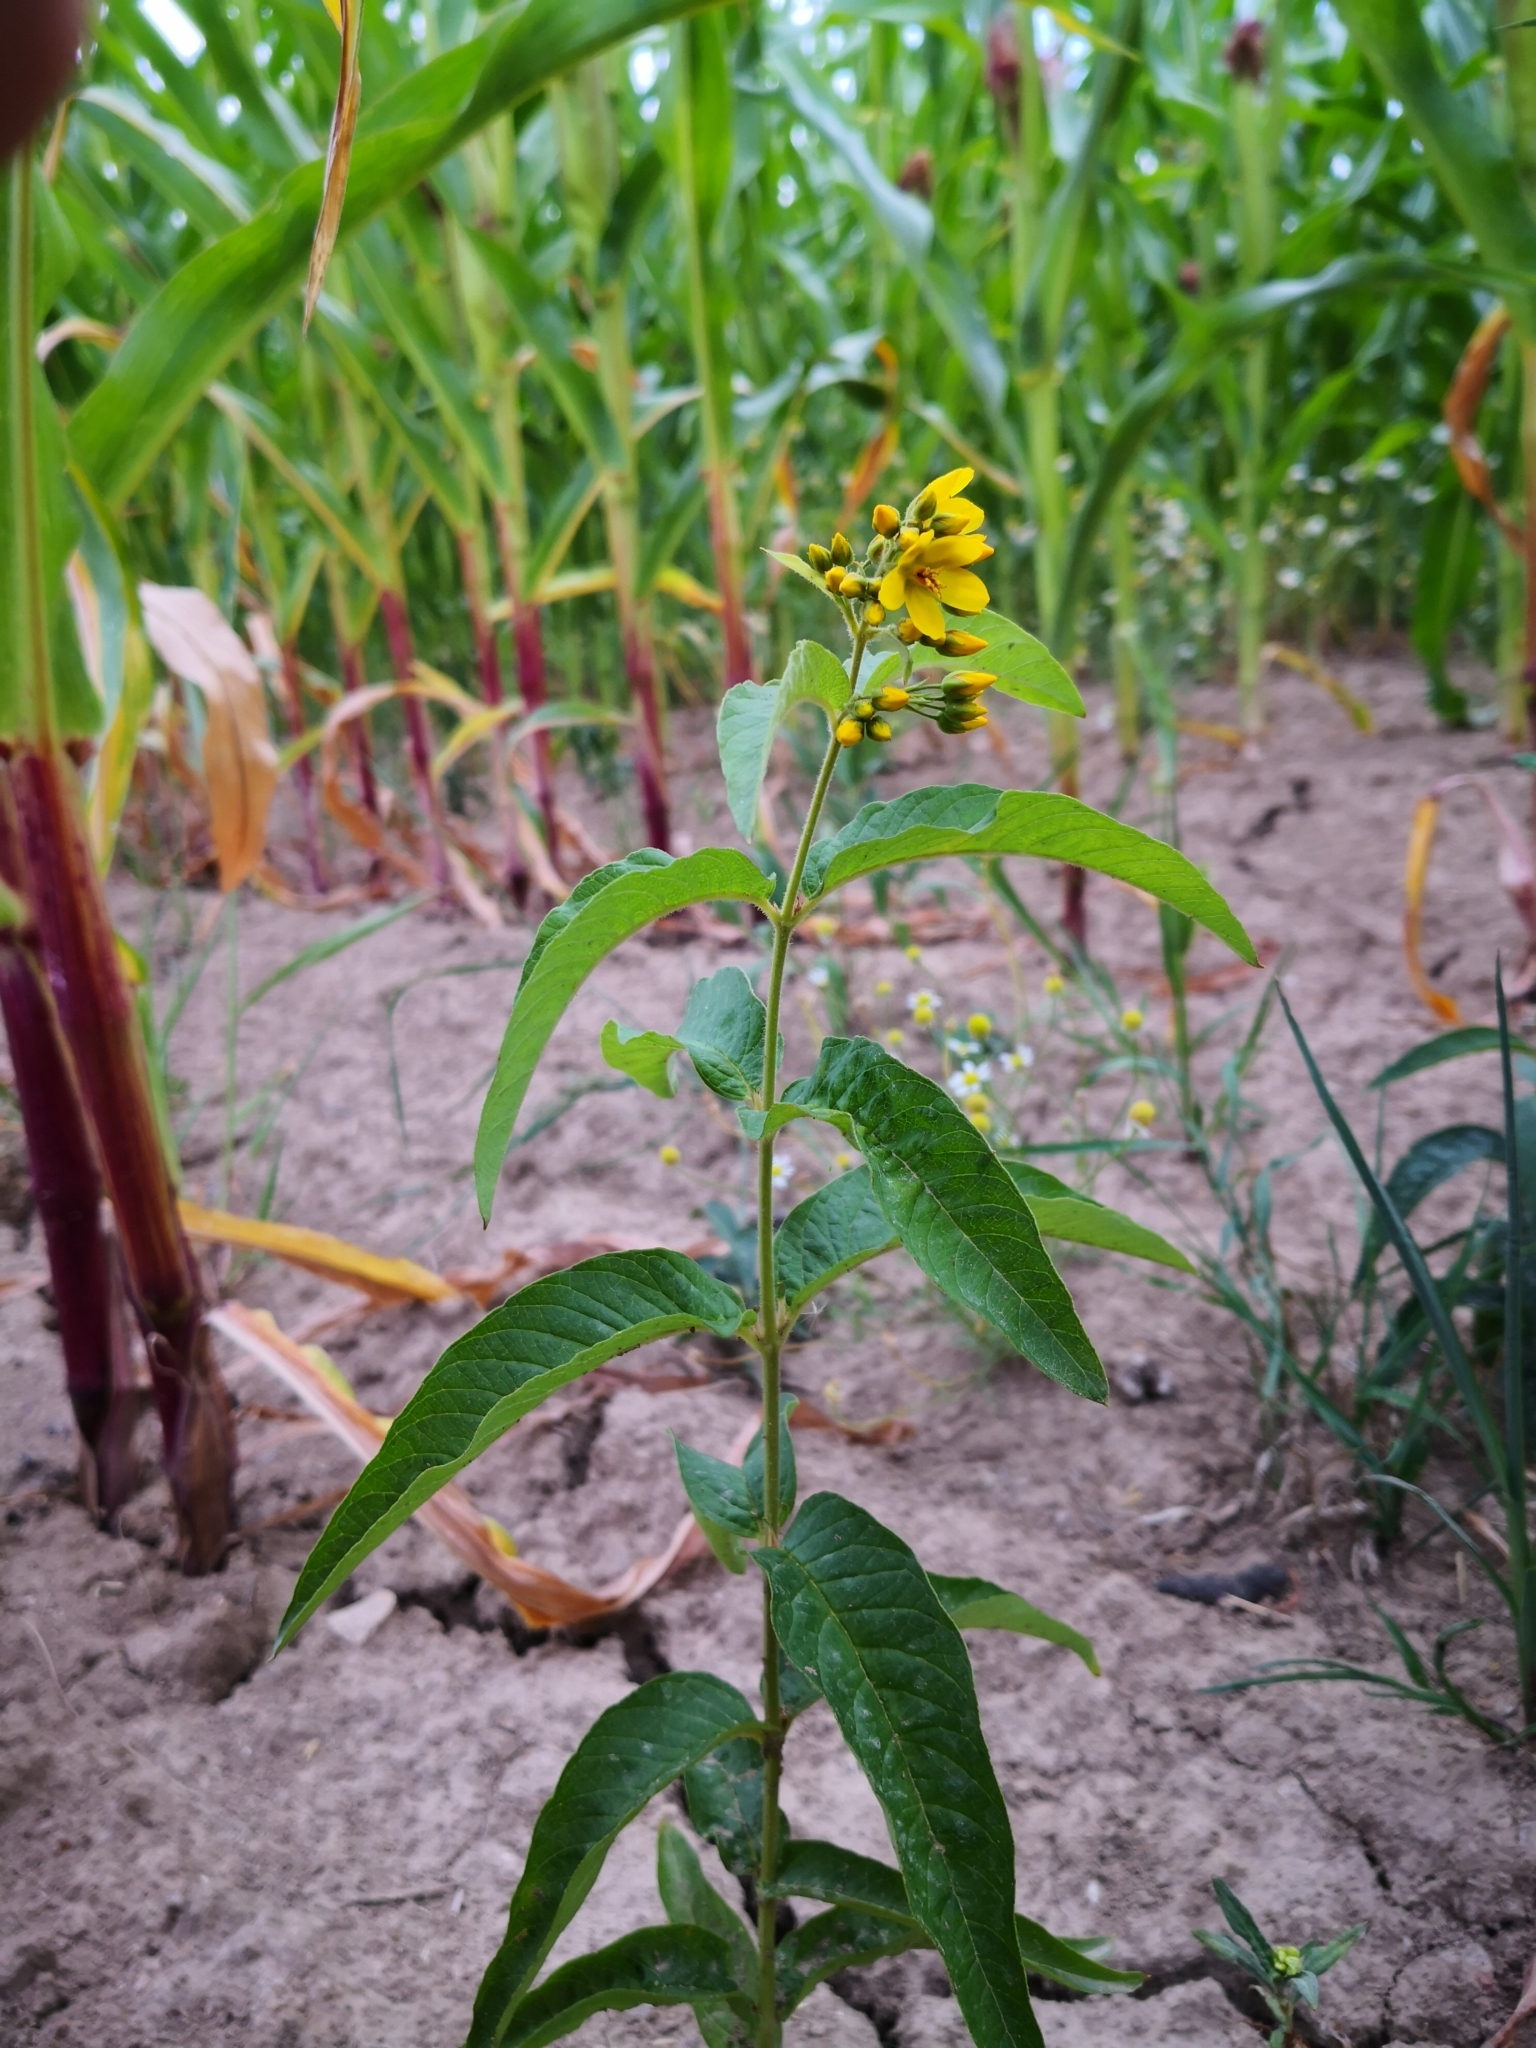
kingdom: Plantae
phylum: Tracheophyta
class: Magnoliopsida
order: Ericales
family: Primulaceae
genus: Lysimachia
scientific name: Lysimachia vulgaris
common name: Yellow loosestrife
